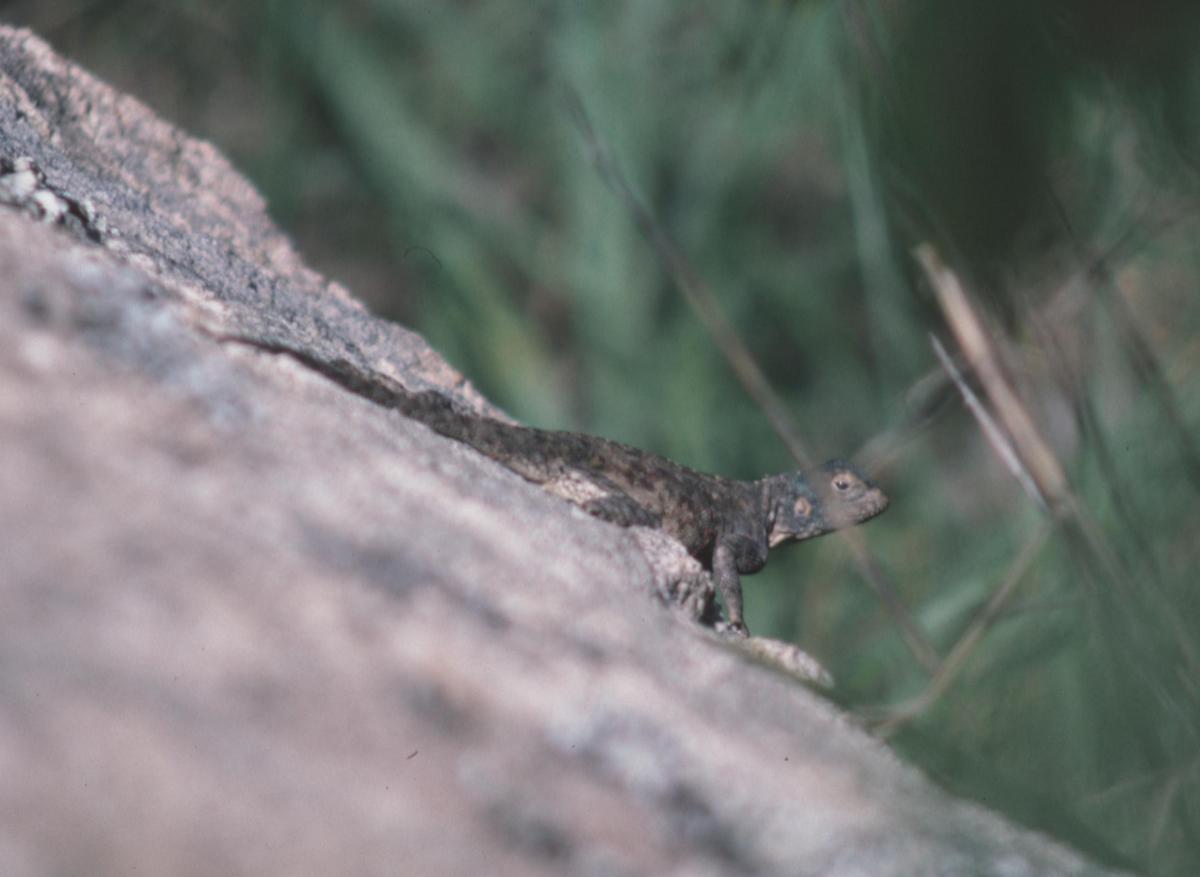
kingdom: Animalia
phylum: Chordata
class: Squamata
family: Agamidae
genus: Agama
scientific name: Agama kirkii
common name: Kirk's rock agama
